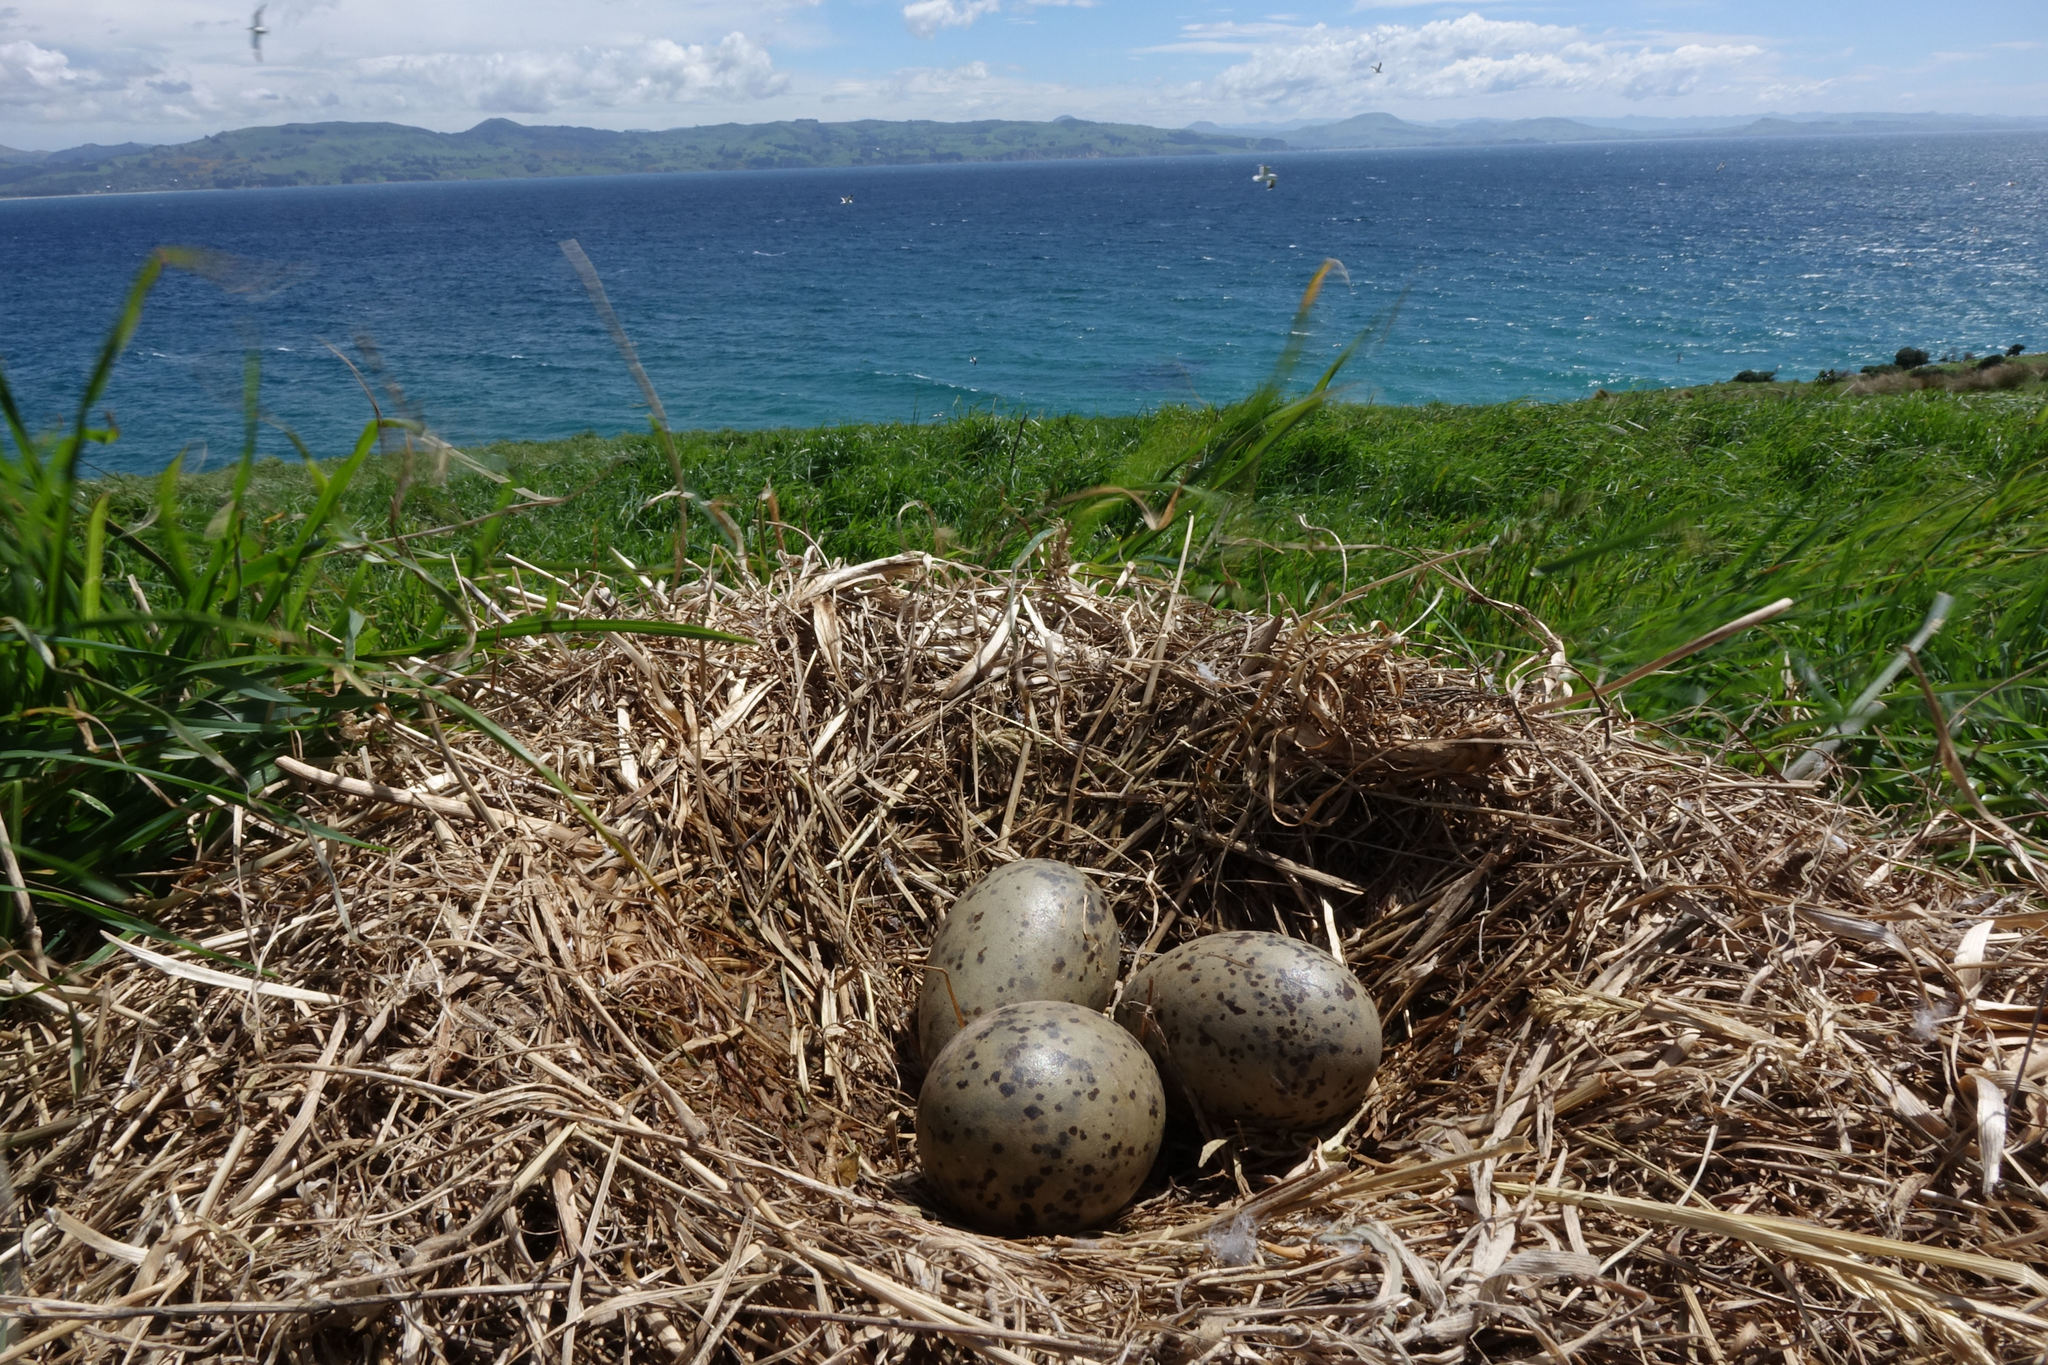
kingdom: Animalia
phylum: Chordata
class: Aves
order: Charadriiformes
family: Laridae
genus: Larus
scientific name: Larus dominicanus
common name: Kelp gull
